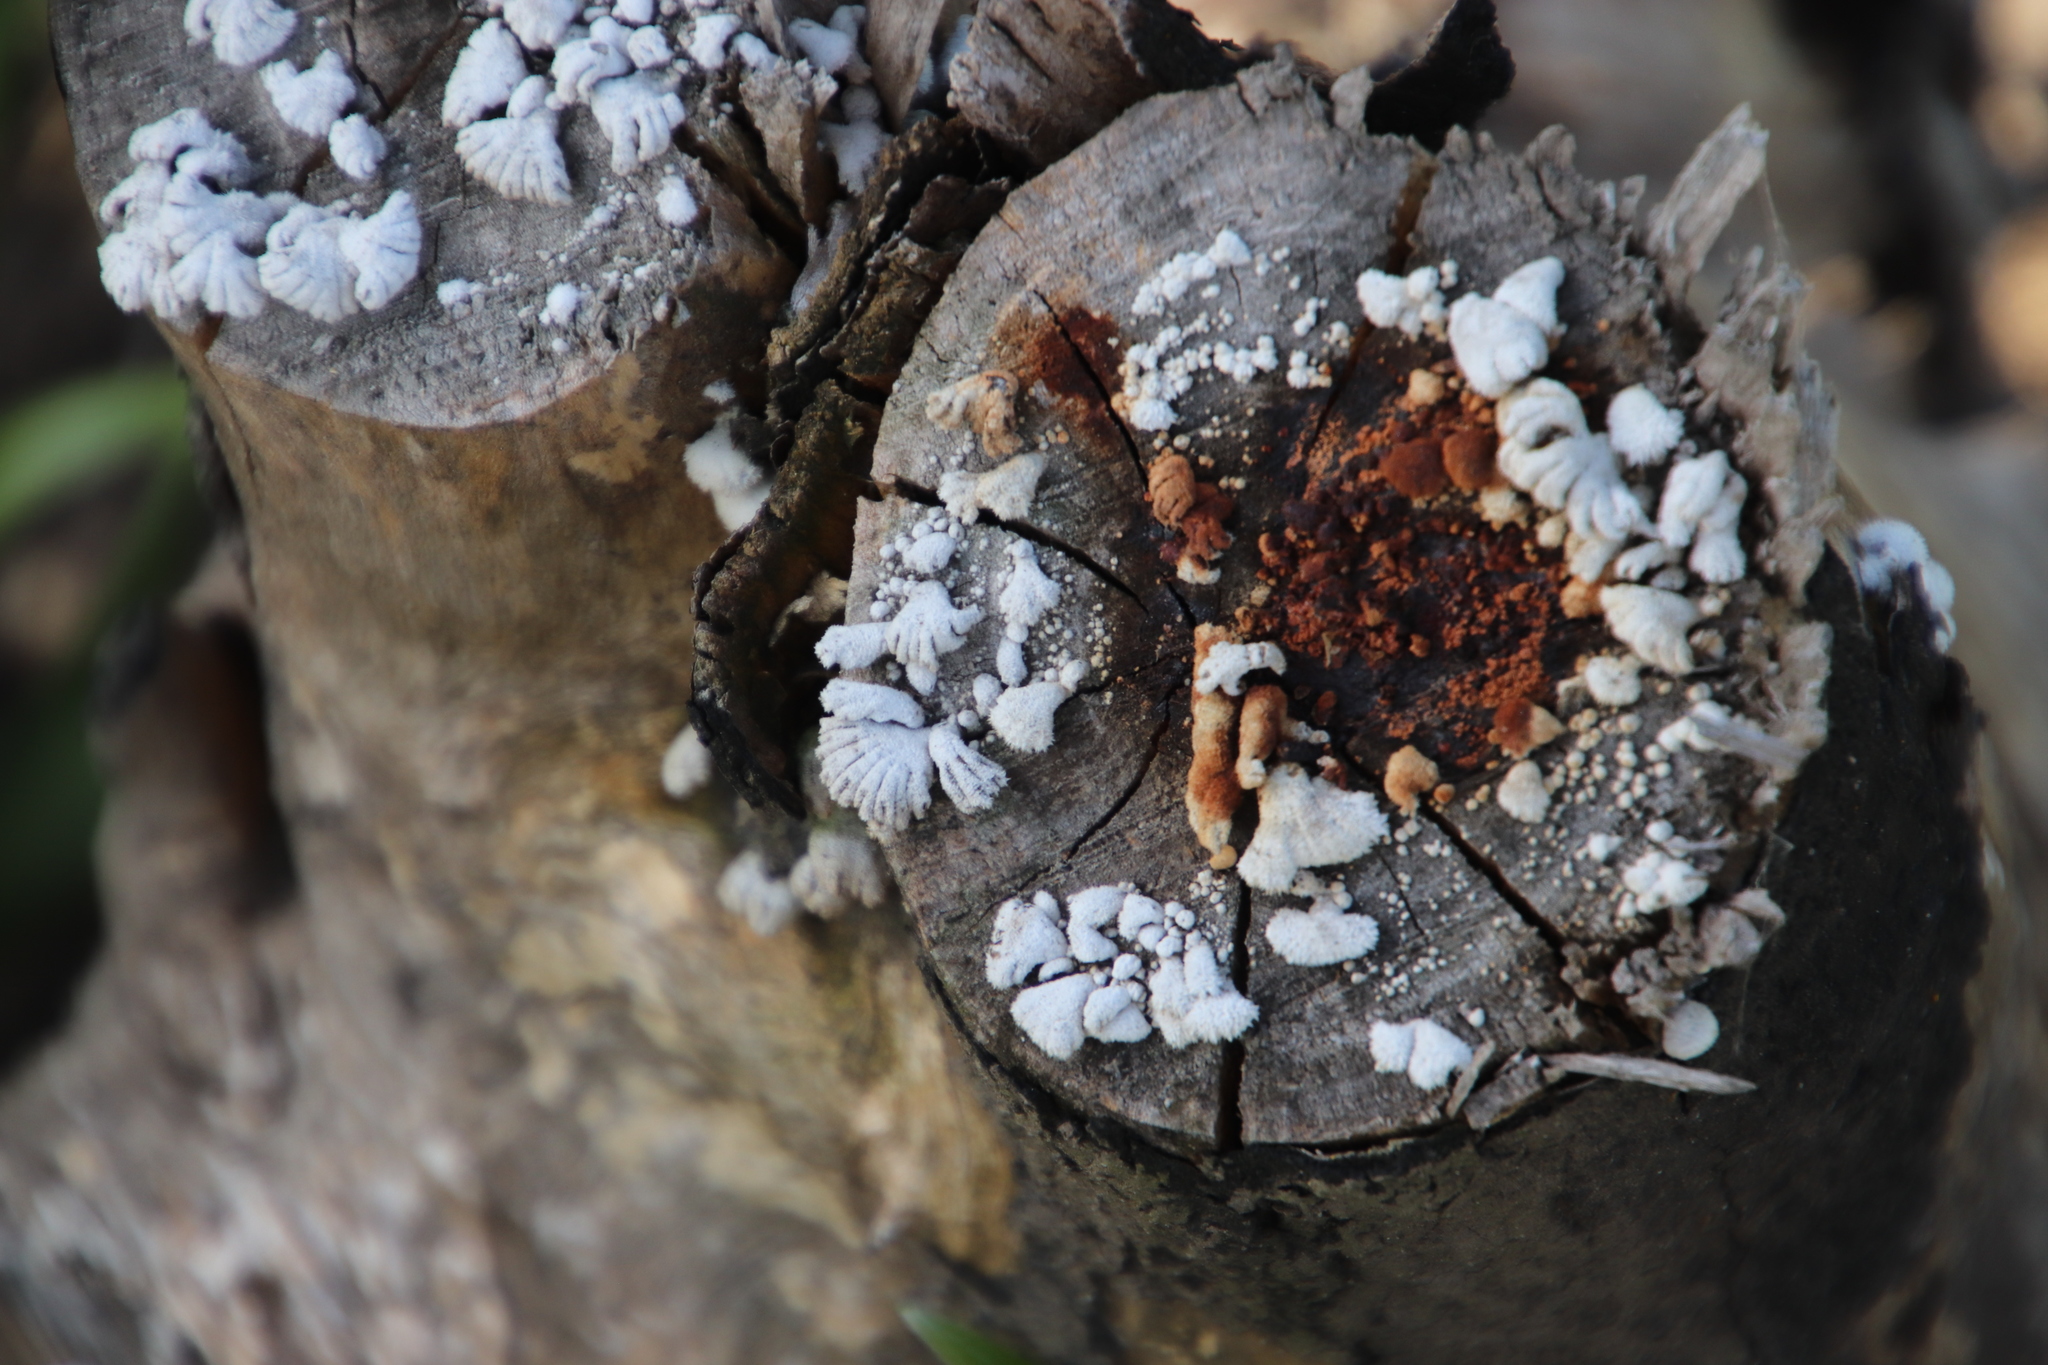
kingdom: Fungi
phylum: Basidiomycota
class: Agaricomycetes
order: Agaricales
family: Schizophyllaceae
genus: Schizophyllum
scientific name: Schizophyllum commune
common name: Common porecrust
